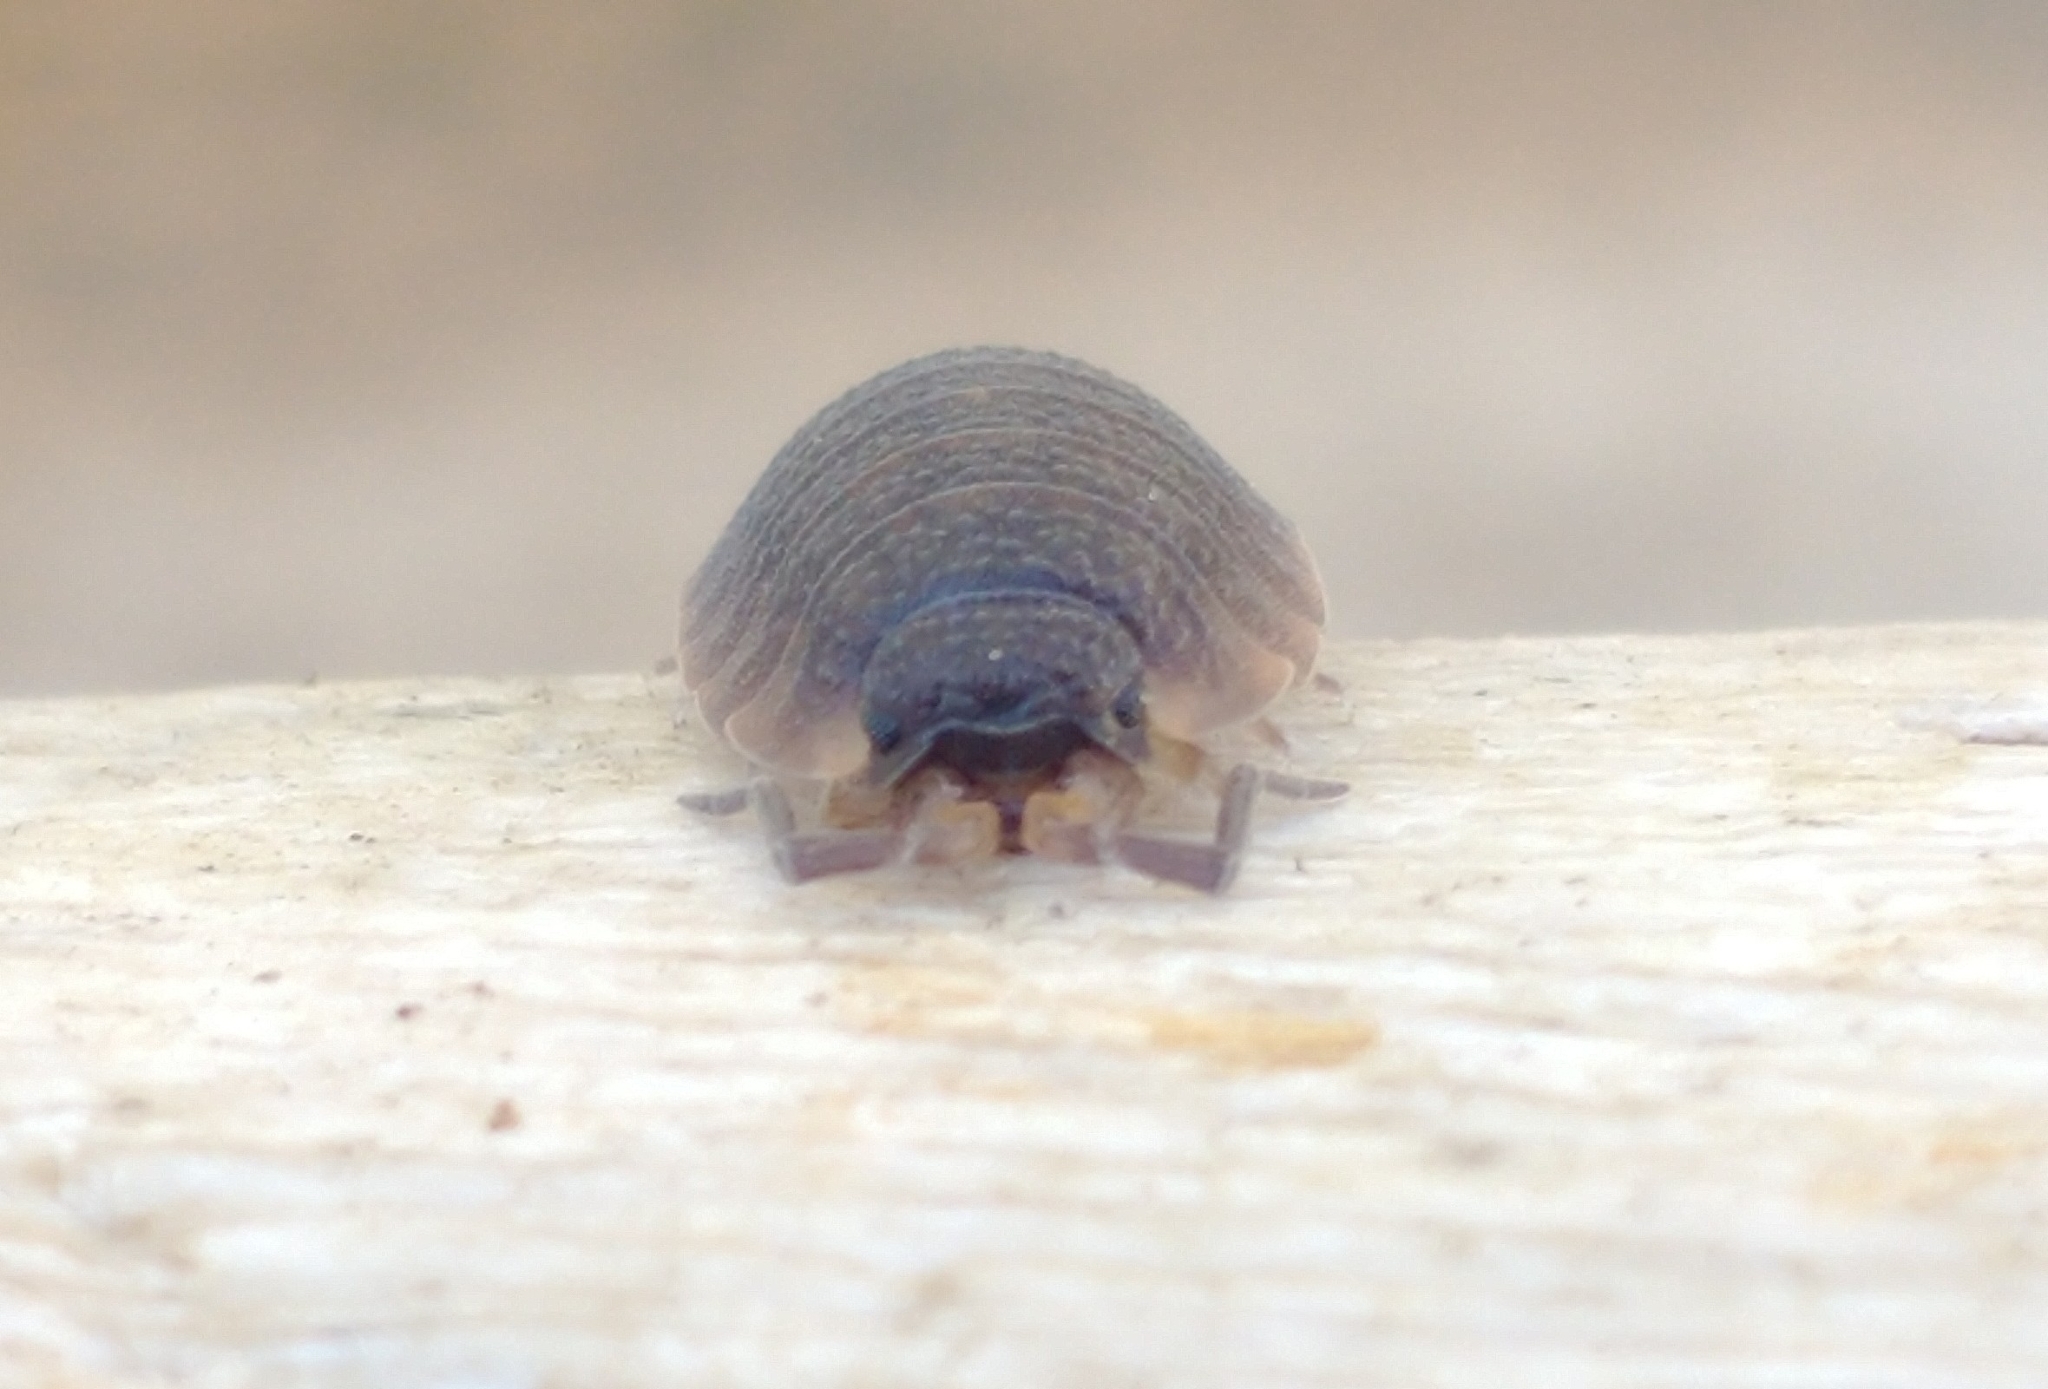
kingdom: Animalia
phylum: Arthropoda
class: Malacostraca
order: Isopoda
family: Porcellionidae
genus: Porcellio
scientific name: Porcellio scaber
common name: Common rough woodlouse
